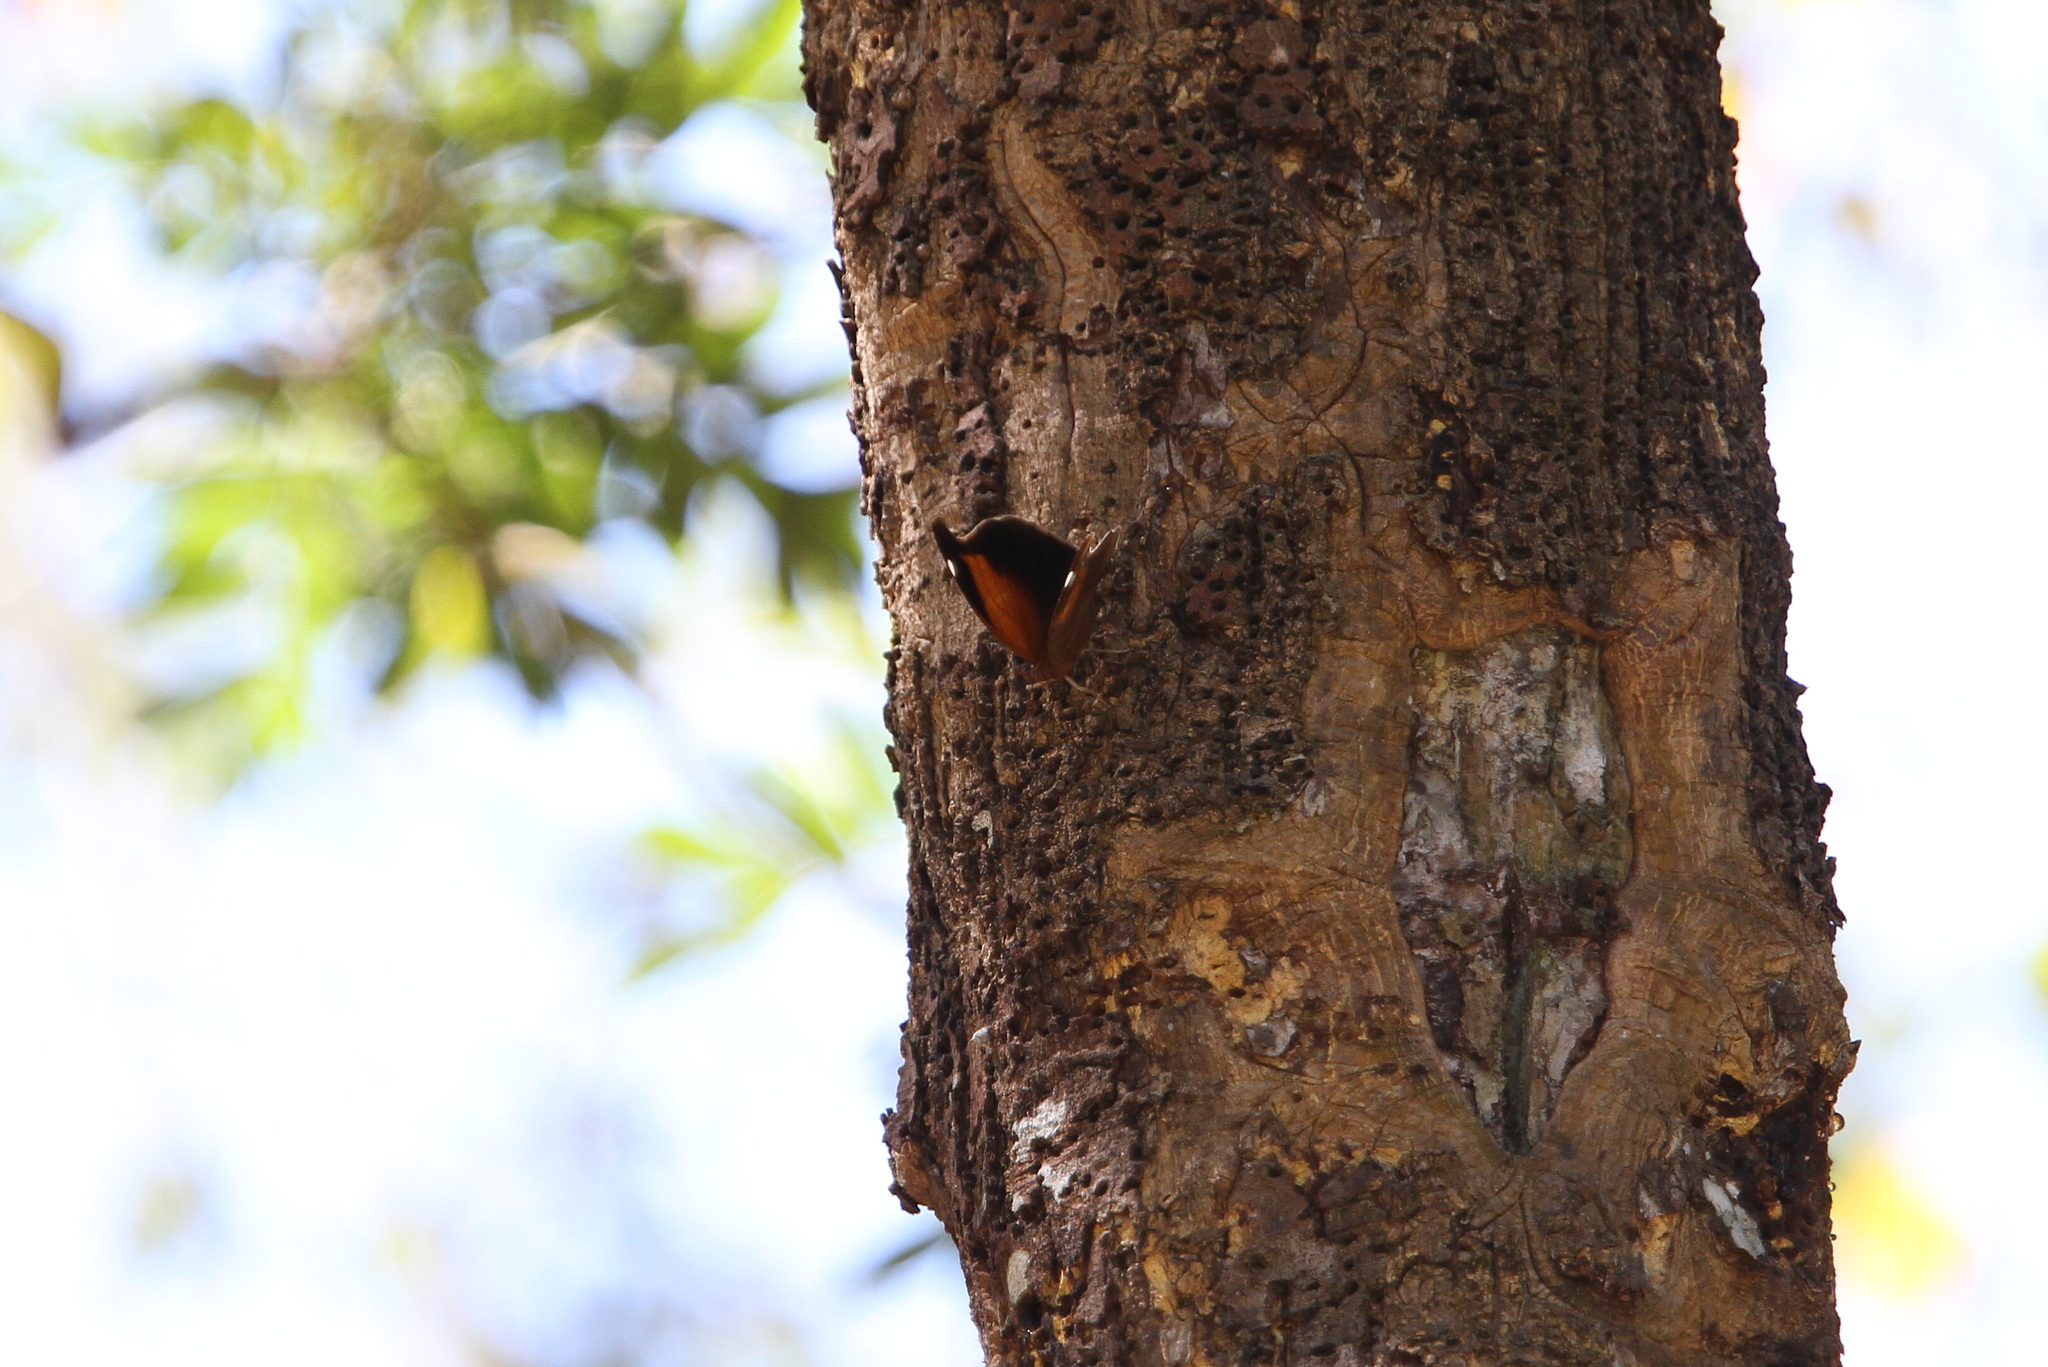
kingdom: Animalia
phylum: Arthropoda
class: Insecta
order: Lepidoptera
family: Nymphalidae
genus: Historis
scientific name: Historis odius
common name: Orion cecropian
